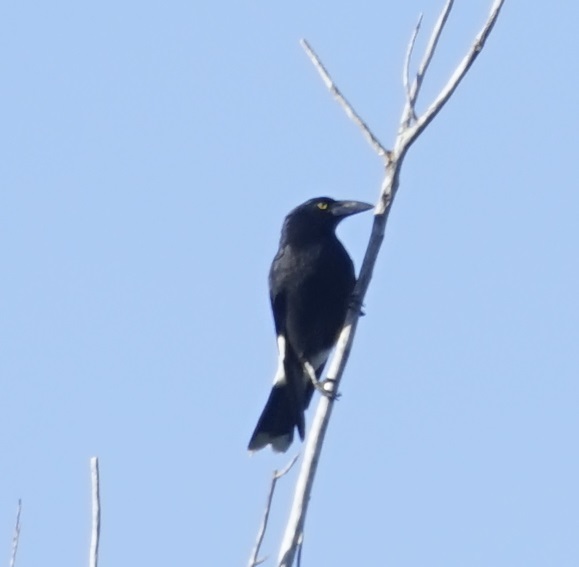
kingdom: Animalia
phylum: Chordata
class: Aves
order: Passeriformes
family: Cracticidae
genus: Strepera
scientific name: Strepera graculina
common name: Pied currawong
